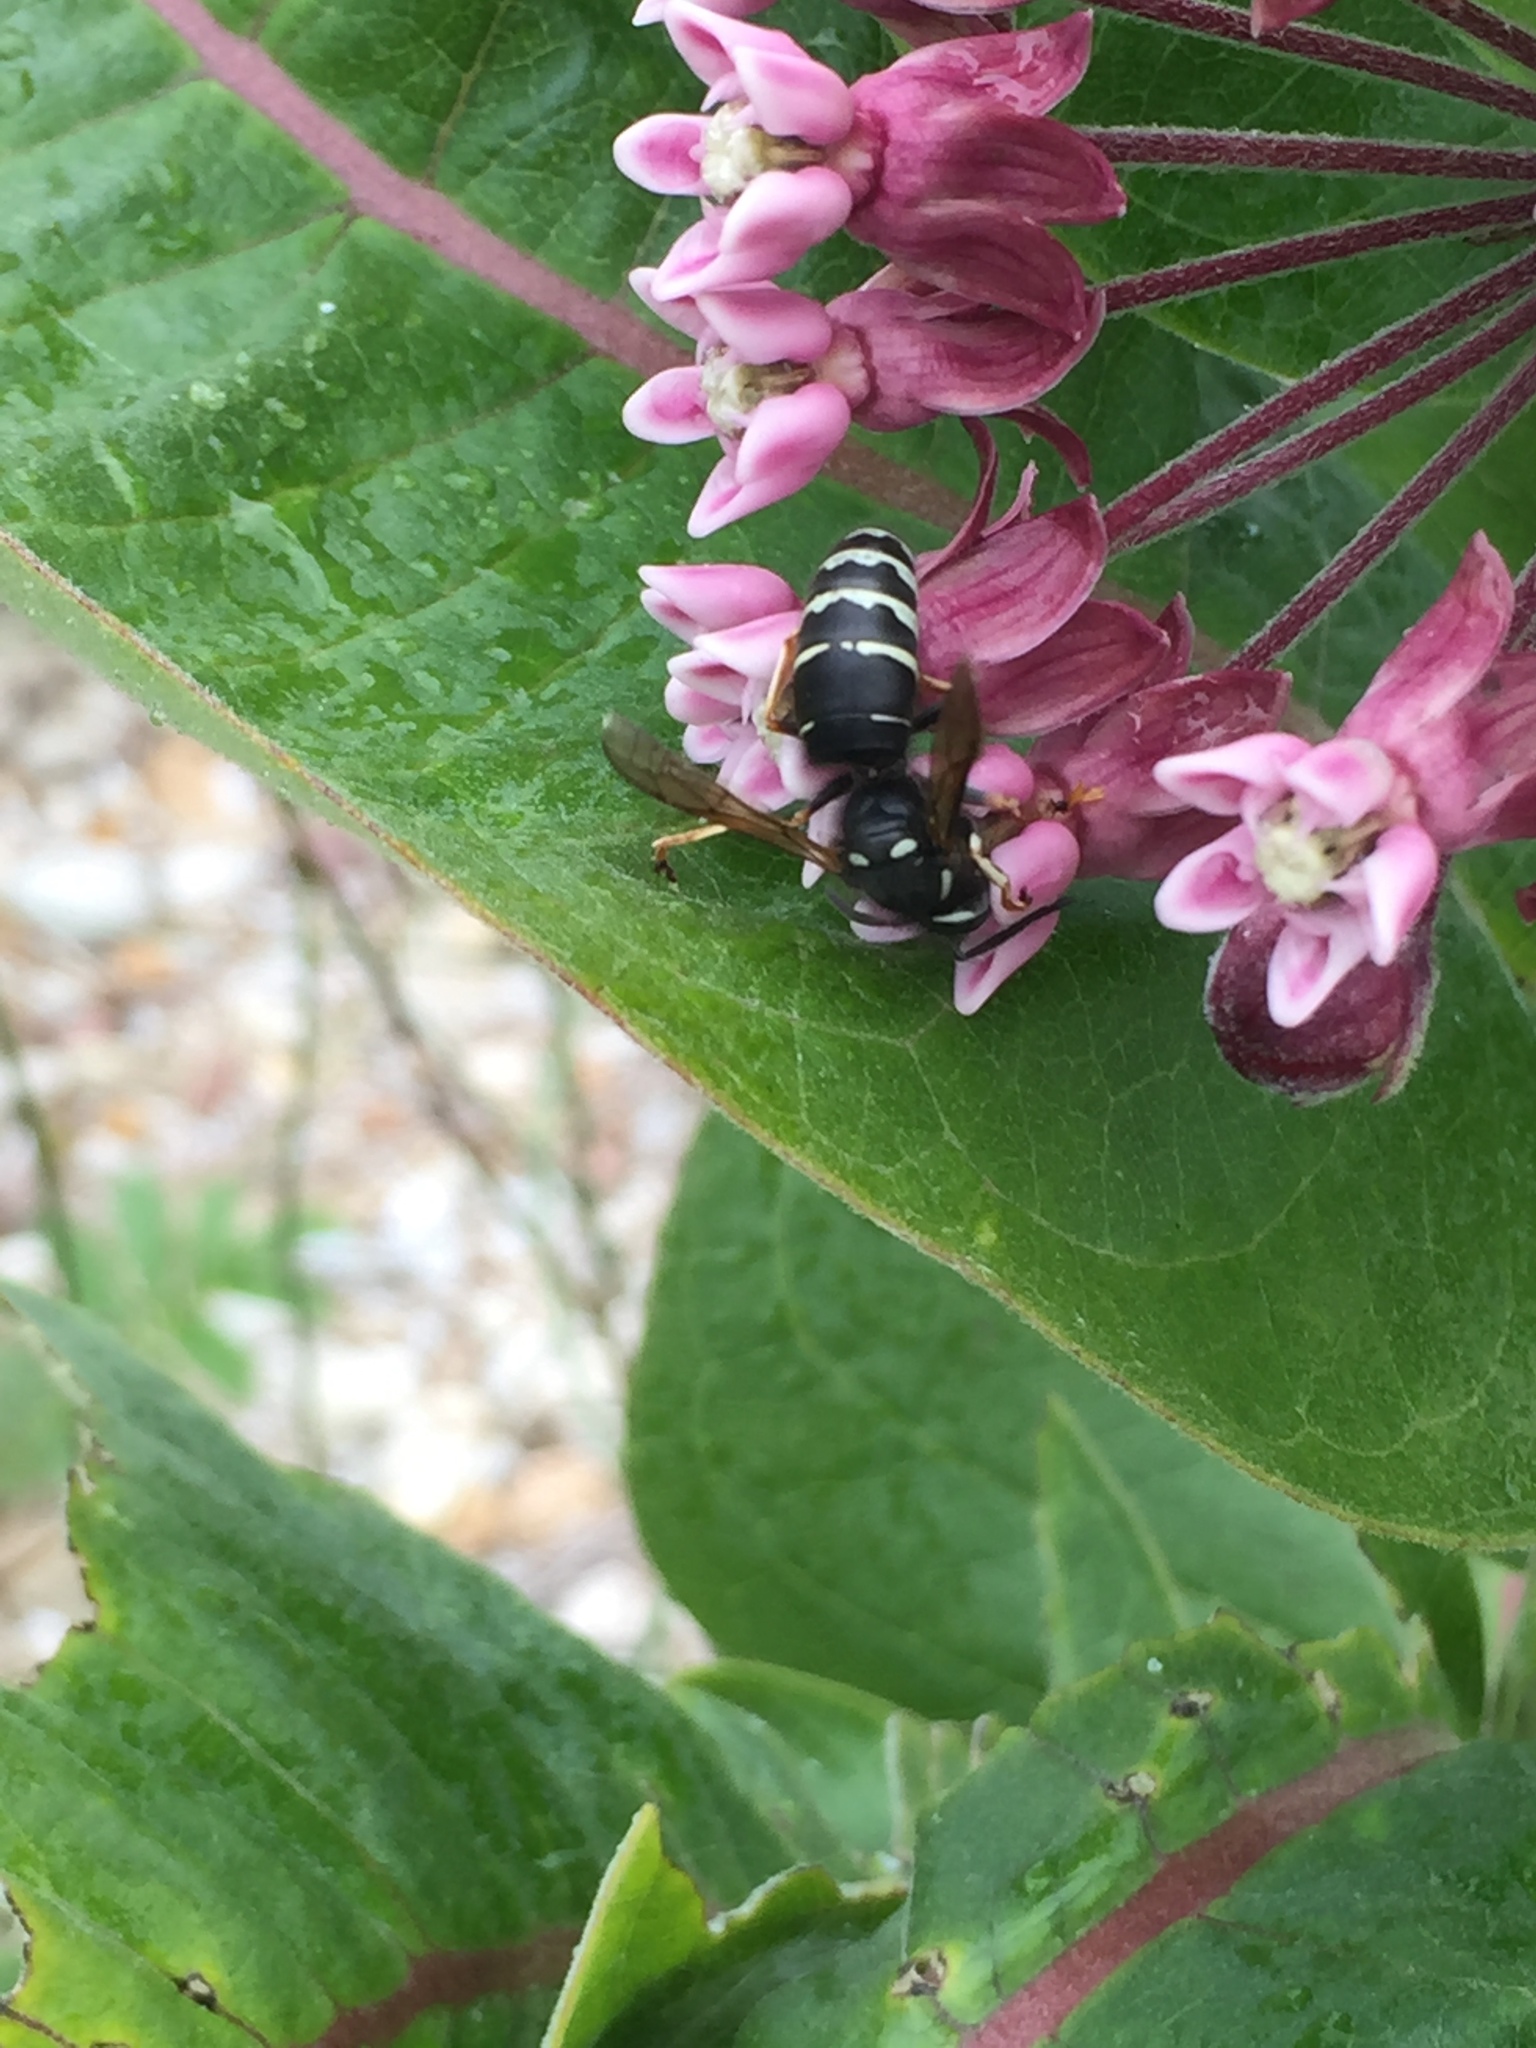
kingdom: Animalia
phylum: Arthropoda
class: Insecta
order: Hymenoptera
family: Vespidae
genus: Vespula
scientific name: Vespula consobrina
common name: Blackjacket
